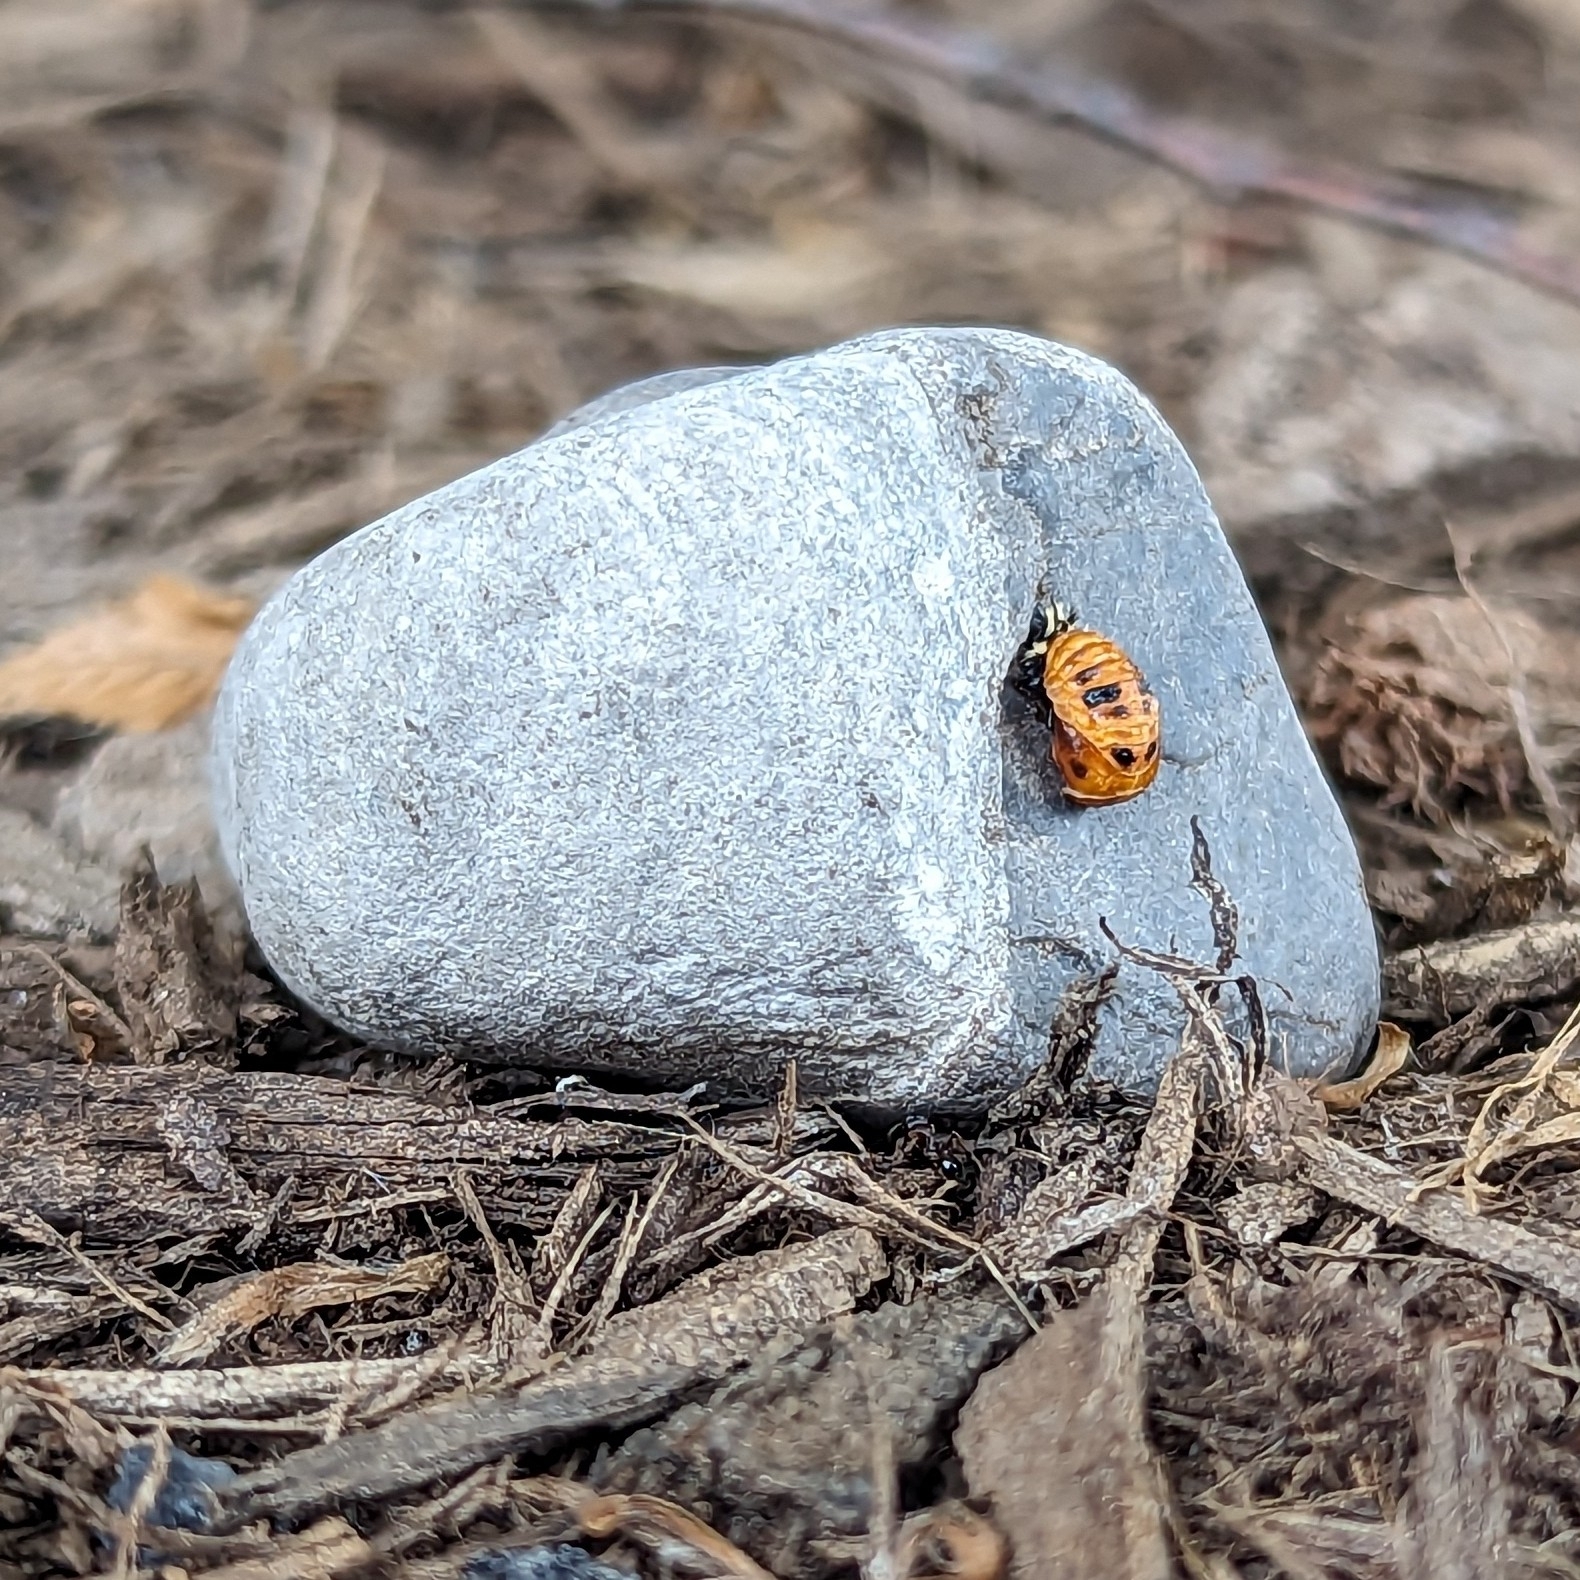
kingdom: Animalia
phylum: Arthropoda
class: Insecta
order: Coleoptera
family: Coccinellidae
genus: Harmonia
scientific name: Harmonia axyridis
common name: Harlequin ladybird
